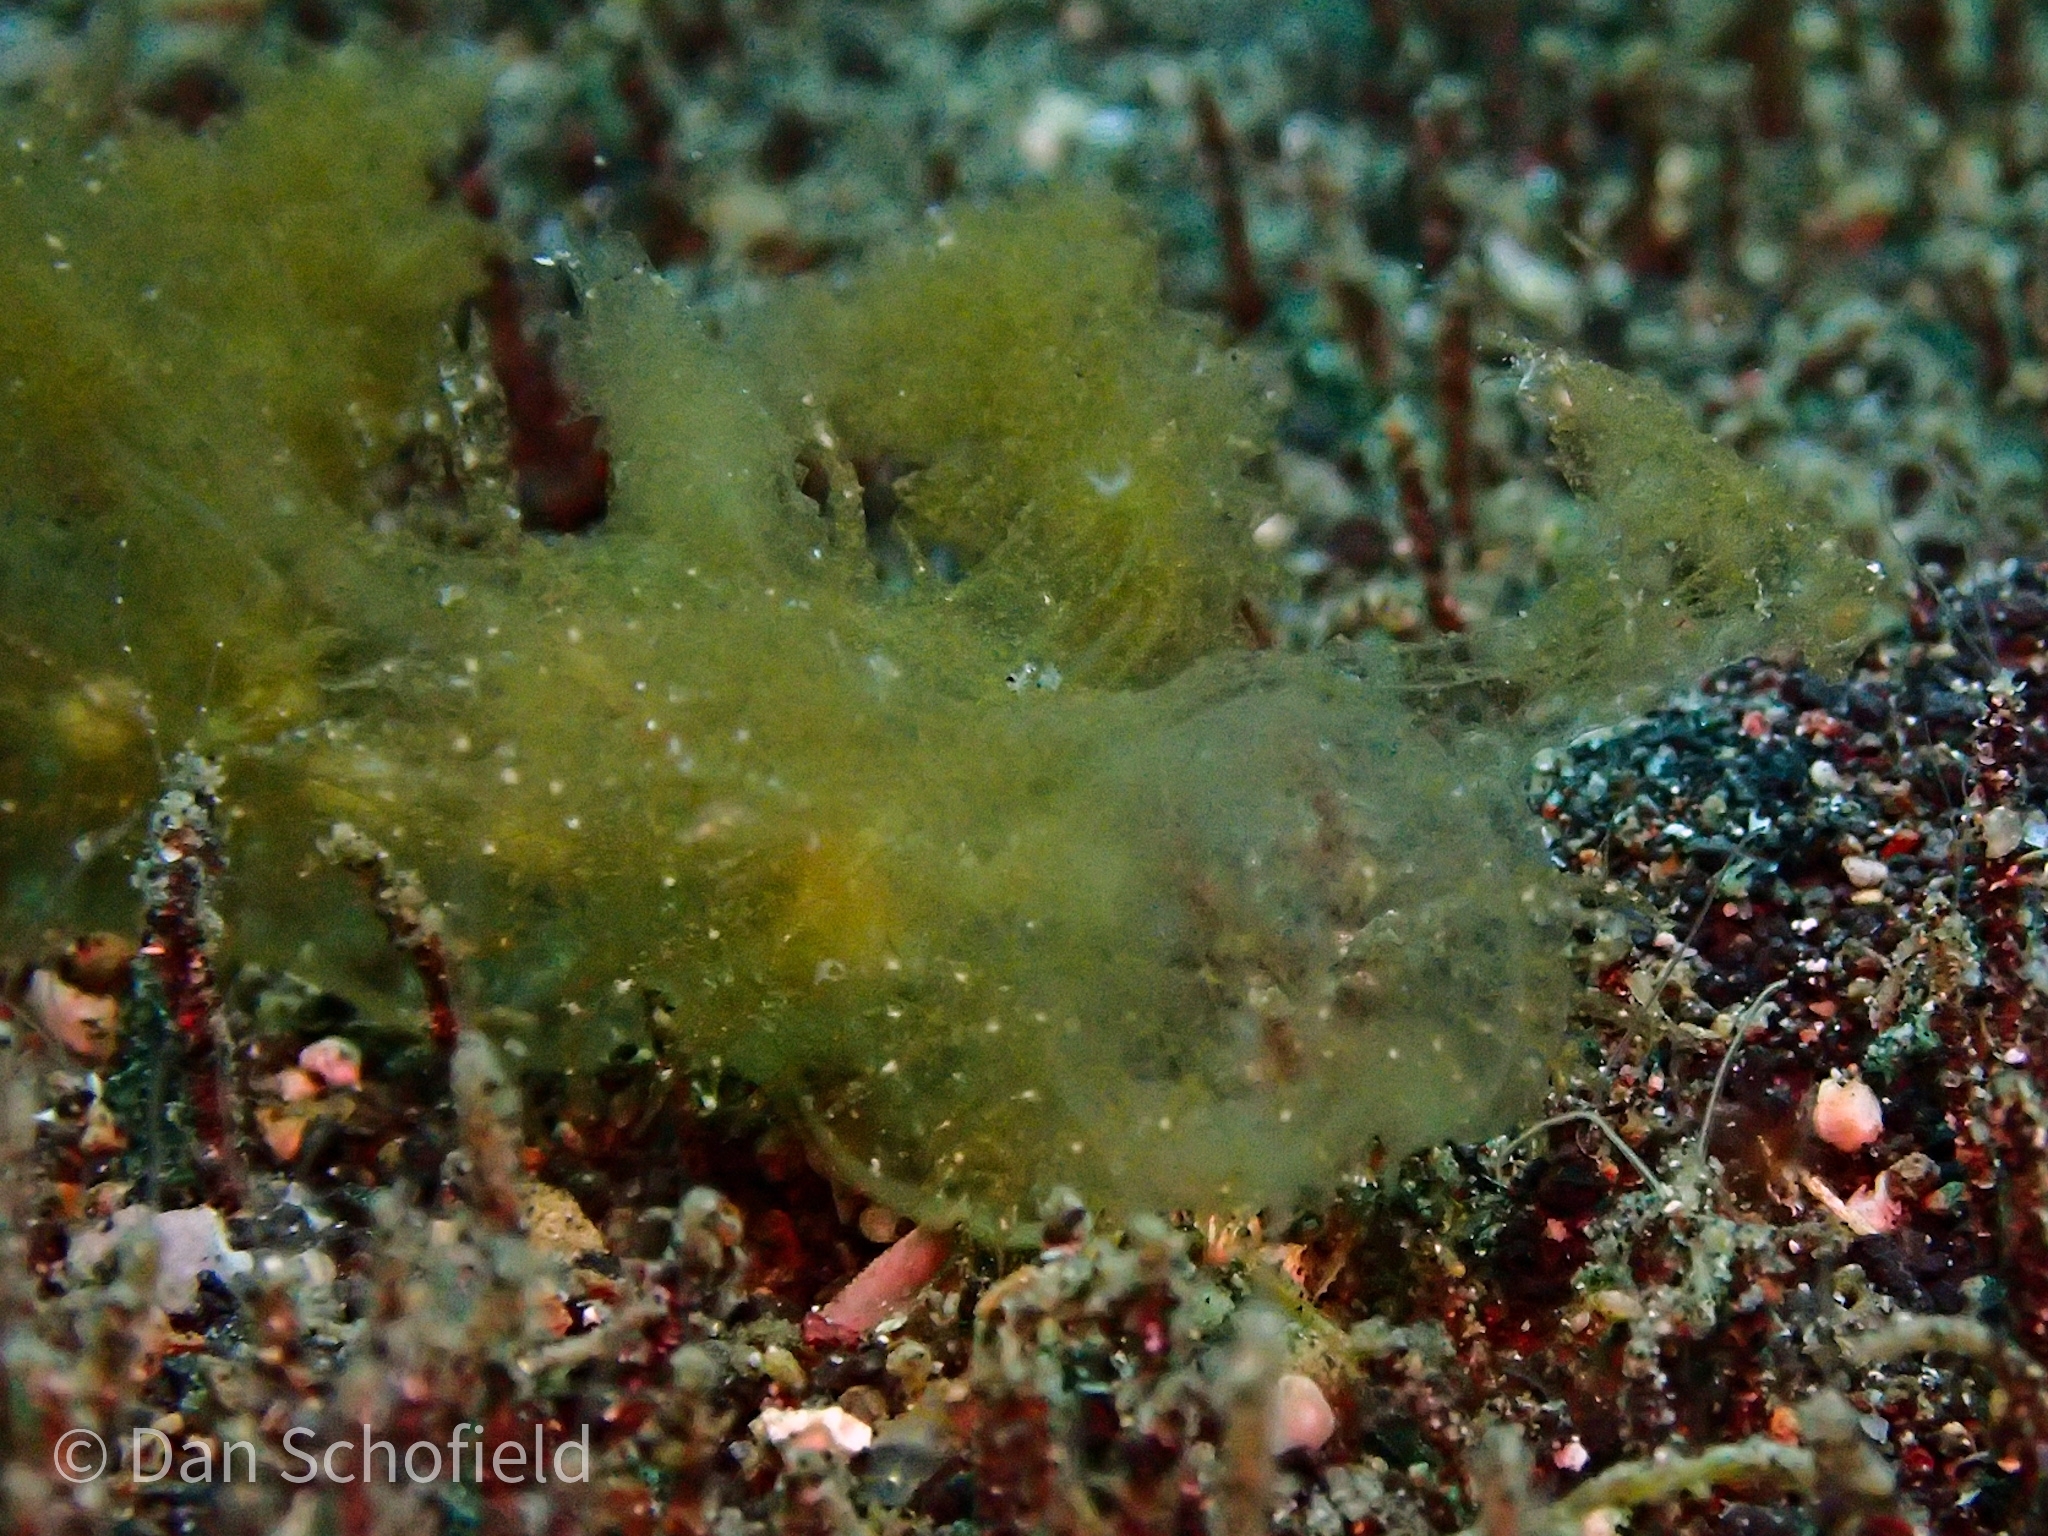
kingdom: Animalia
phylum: Mollusca
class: Gastropoda
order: Nudibranchia
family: Tethydidae
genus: Melibe
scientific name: Melibe engeli
